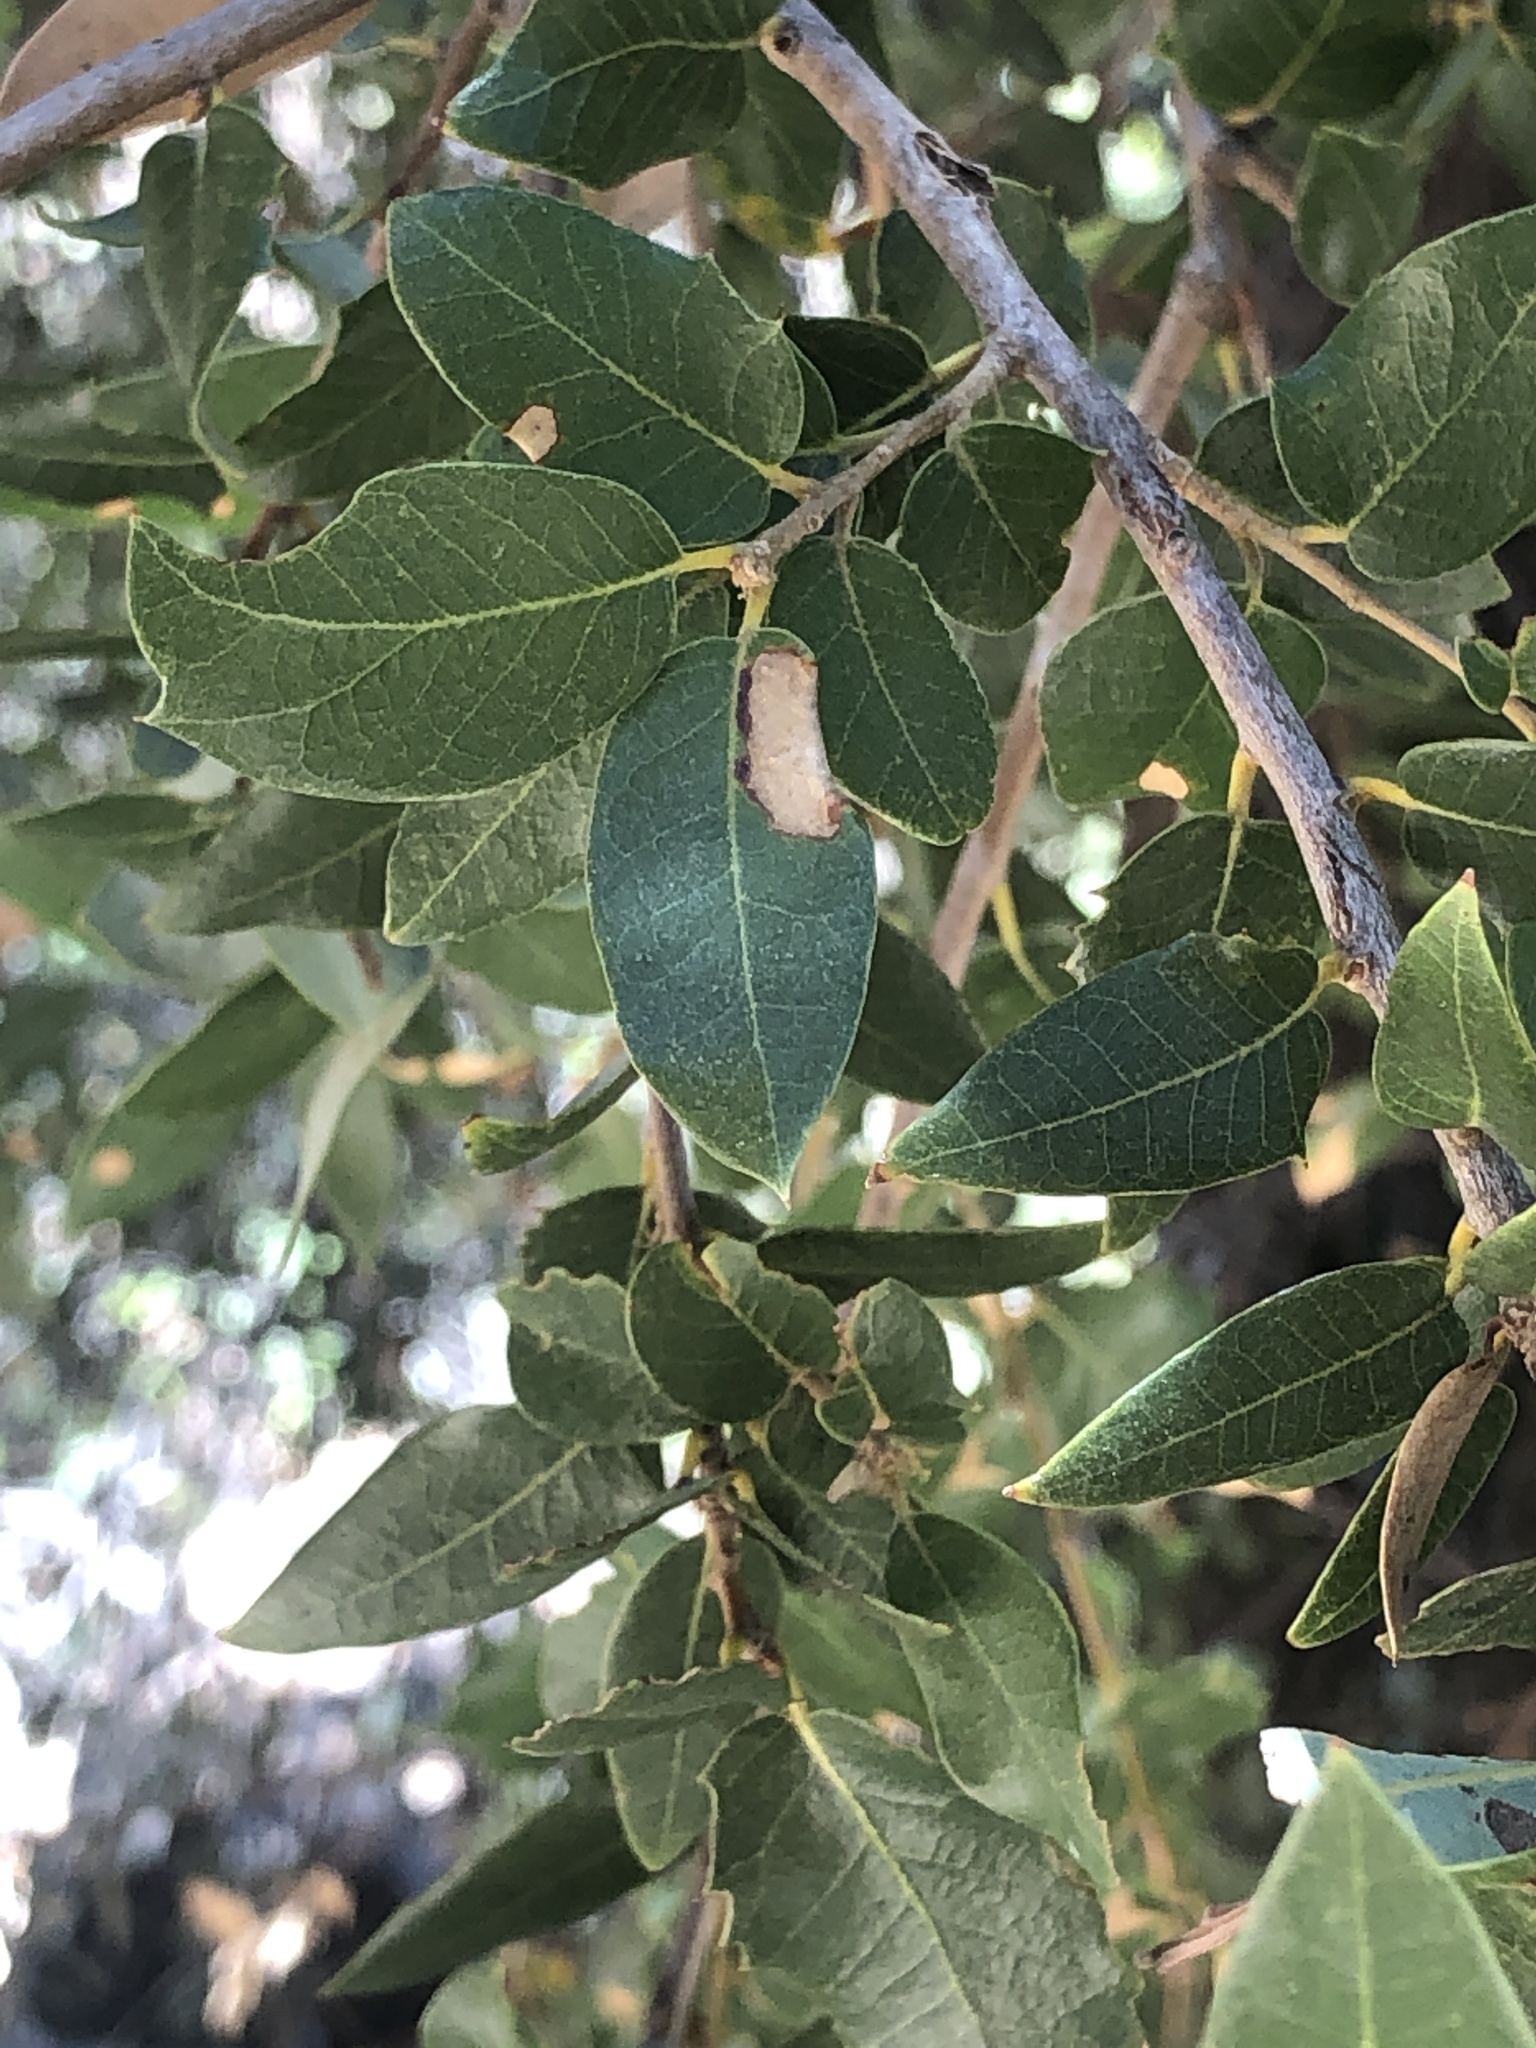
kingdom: Plantae
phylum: Tracheophyta
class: Magnoliopsida
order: Fagales
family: Fagaceae
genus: Quercus
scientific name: Quercus chrysolepis
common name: Canyon live oak
